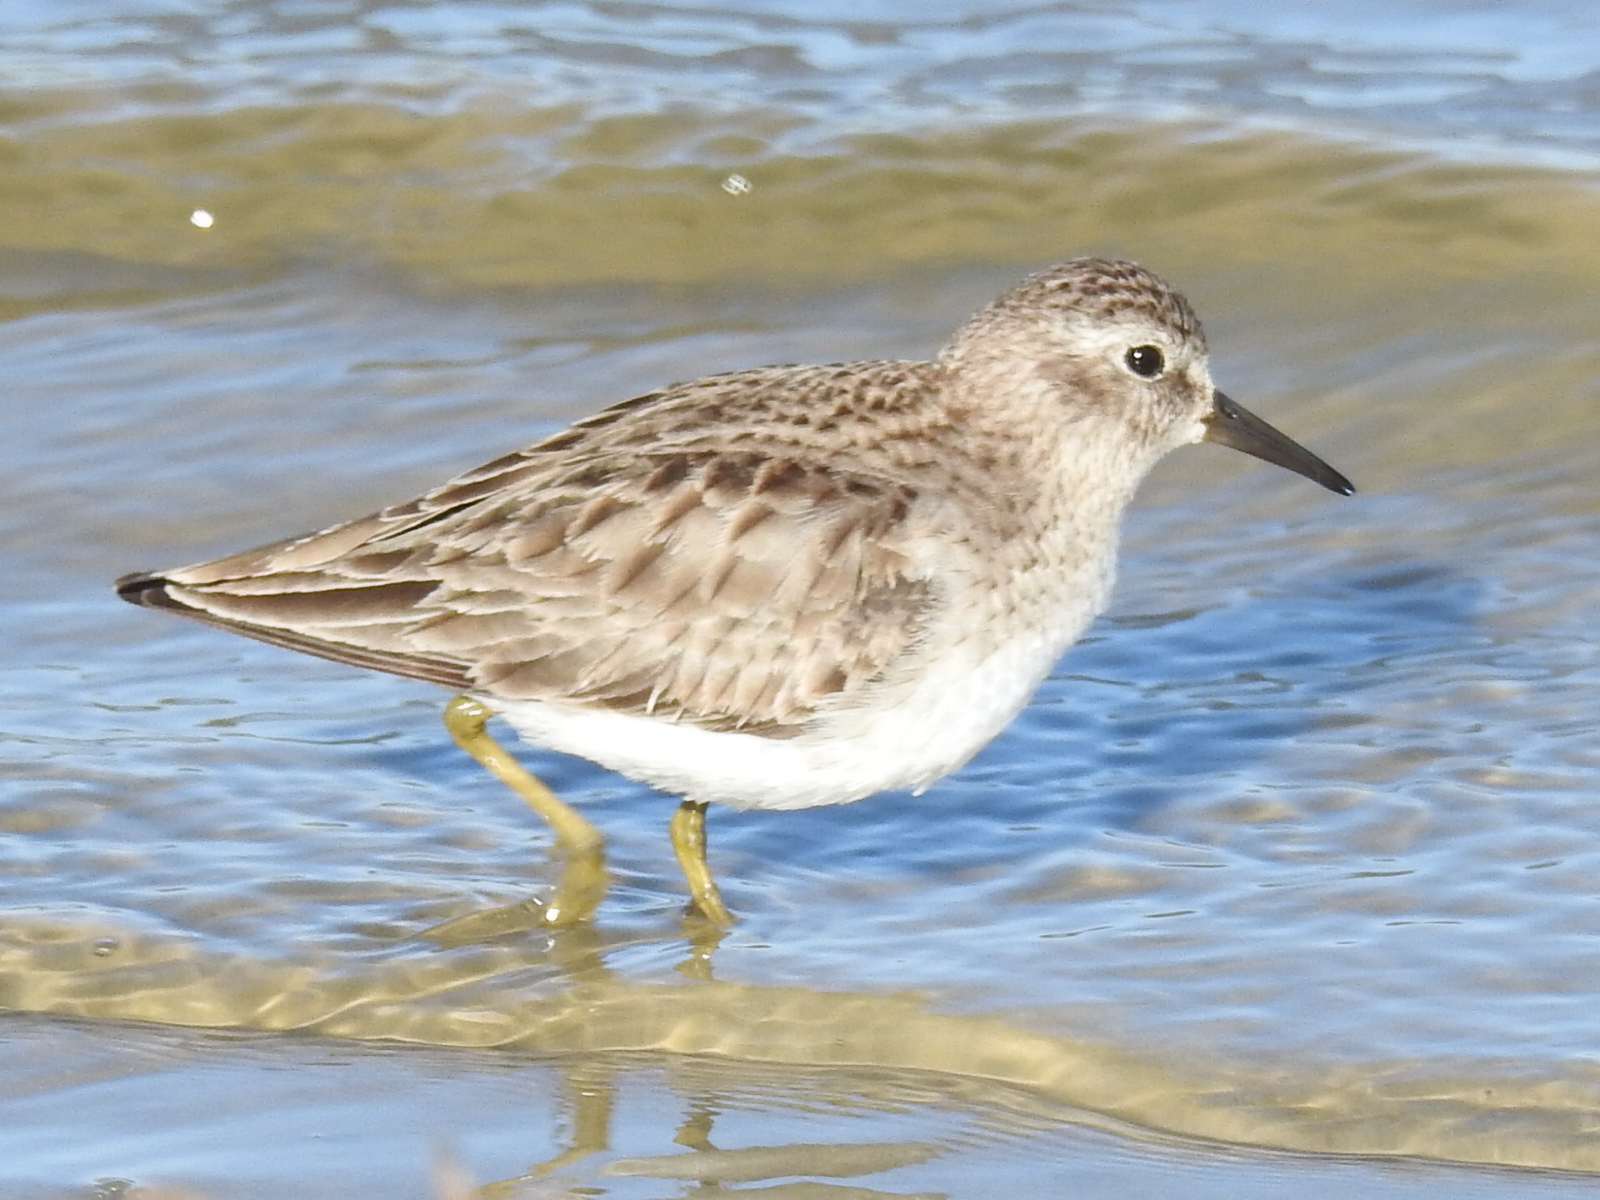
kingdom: Animalia
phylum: Chordata
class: Aves
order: Charadriiformes
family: Scolopacidae
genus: Calidris
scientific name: Calidris minutilla
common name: Least sandpiper
